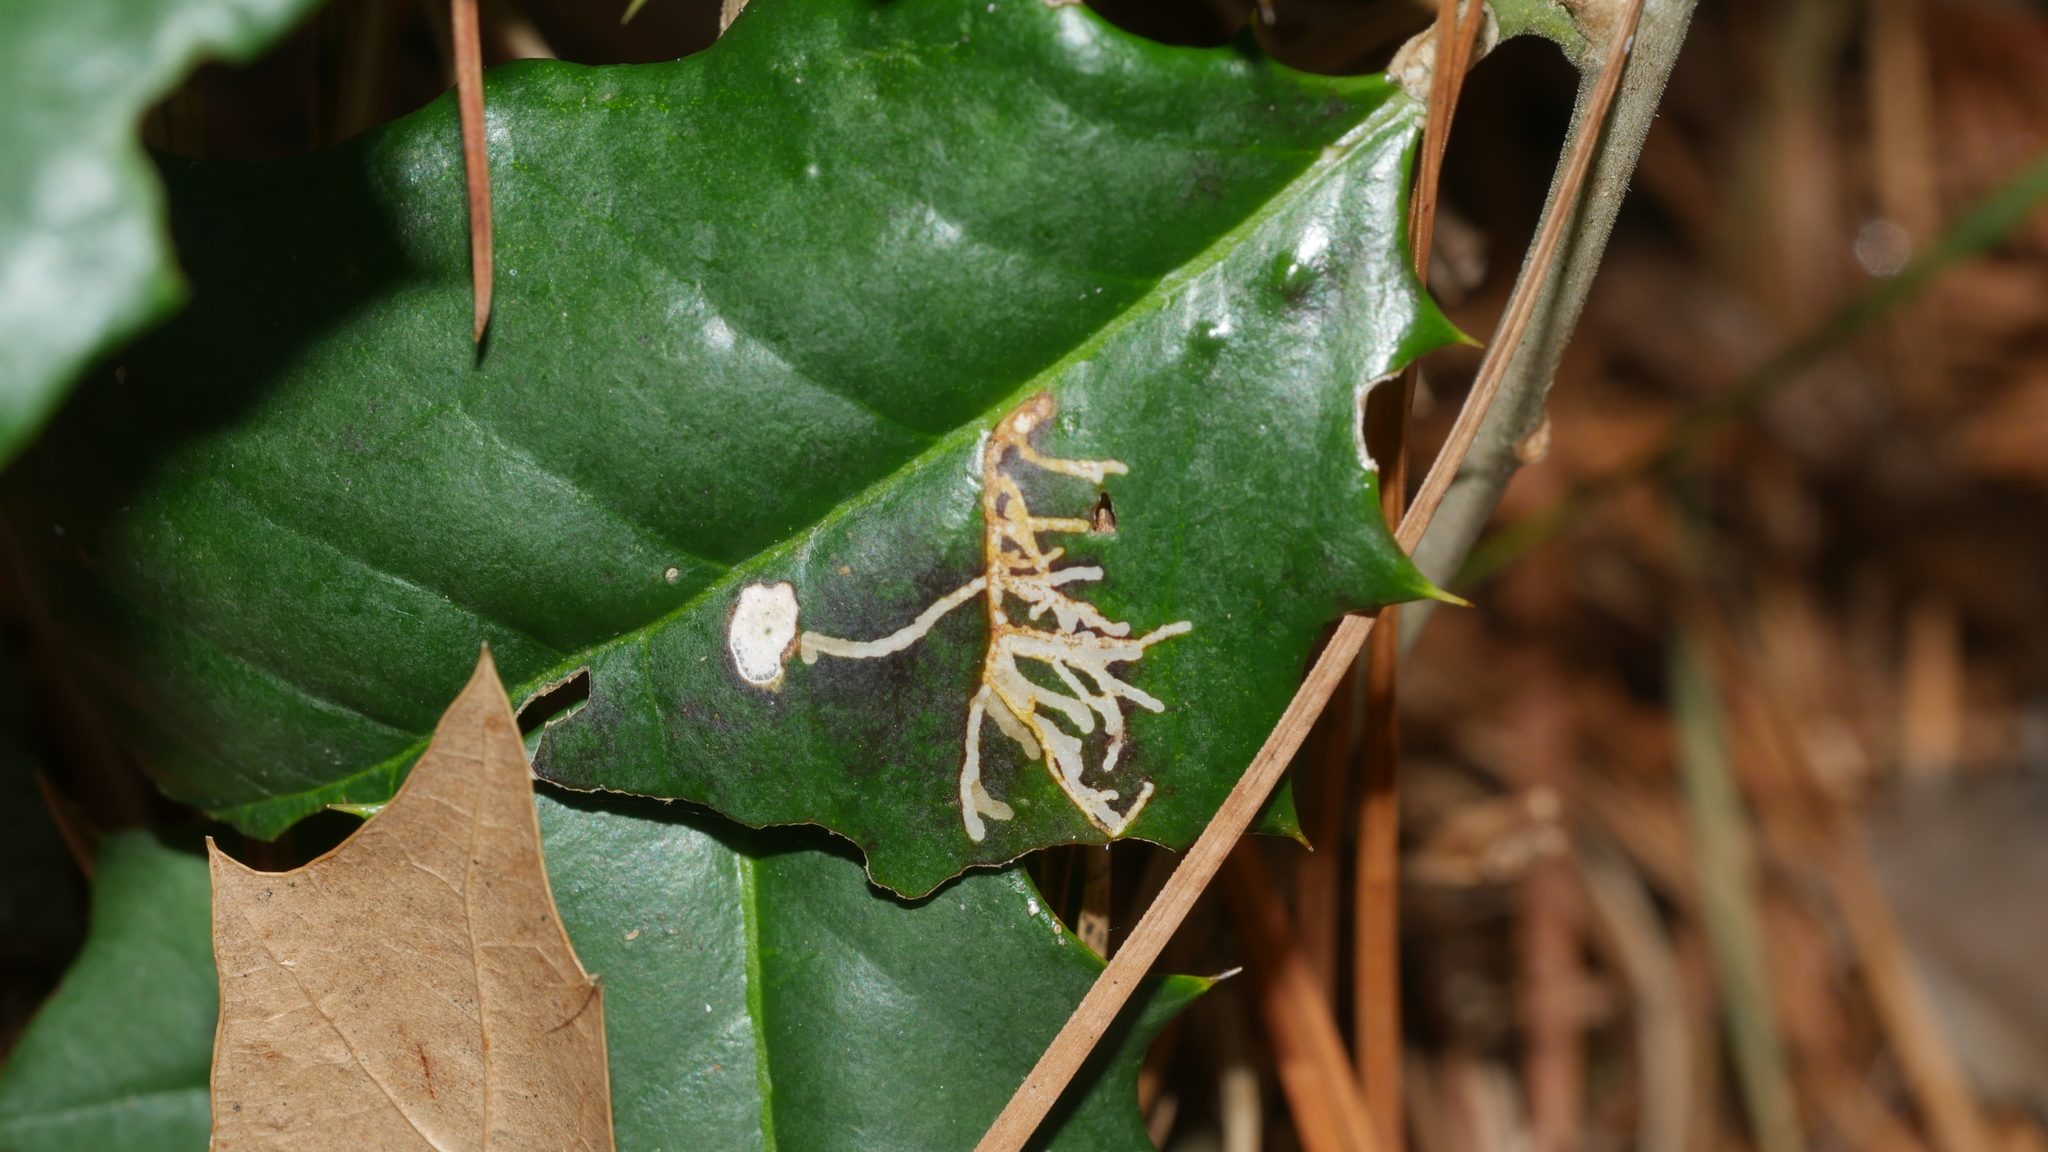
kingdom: Animalia
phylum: Arthropoda
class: Insecta
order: Lepidoptera
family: Tortricidae
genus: Rhopobota
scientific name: Rhopobota
